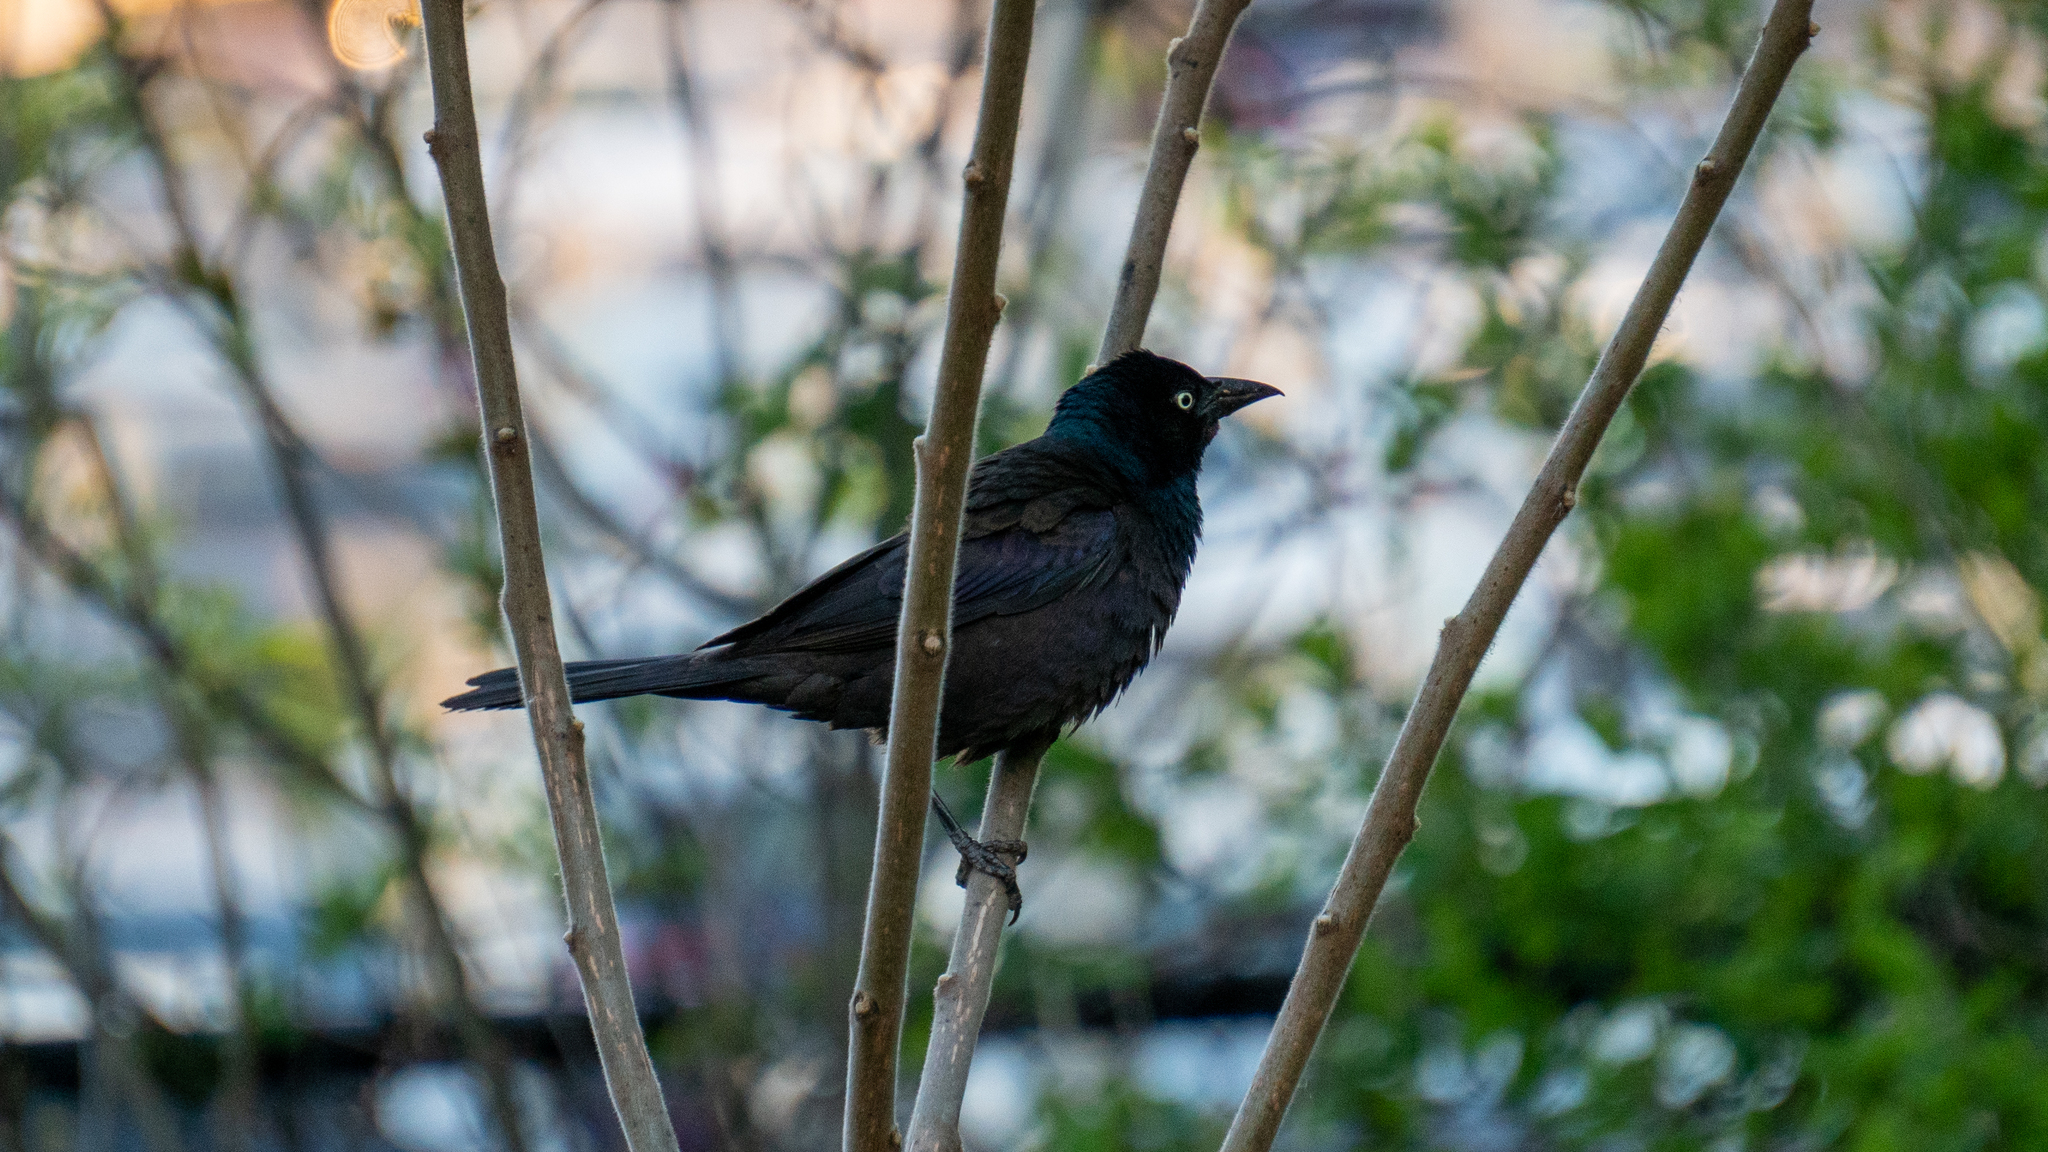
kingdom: Animalia
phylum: Chordata
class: Aves
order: Passeriformes
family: Icteridae
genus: Quiscalus
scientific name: Quiscalus quiscula
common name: Common grackle
